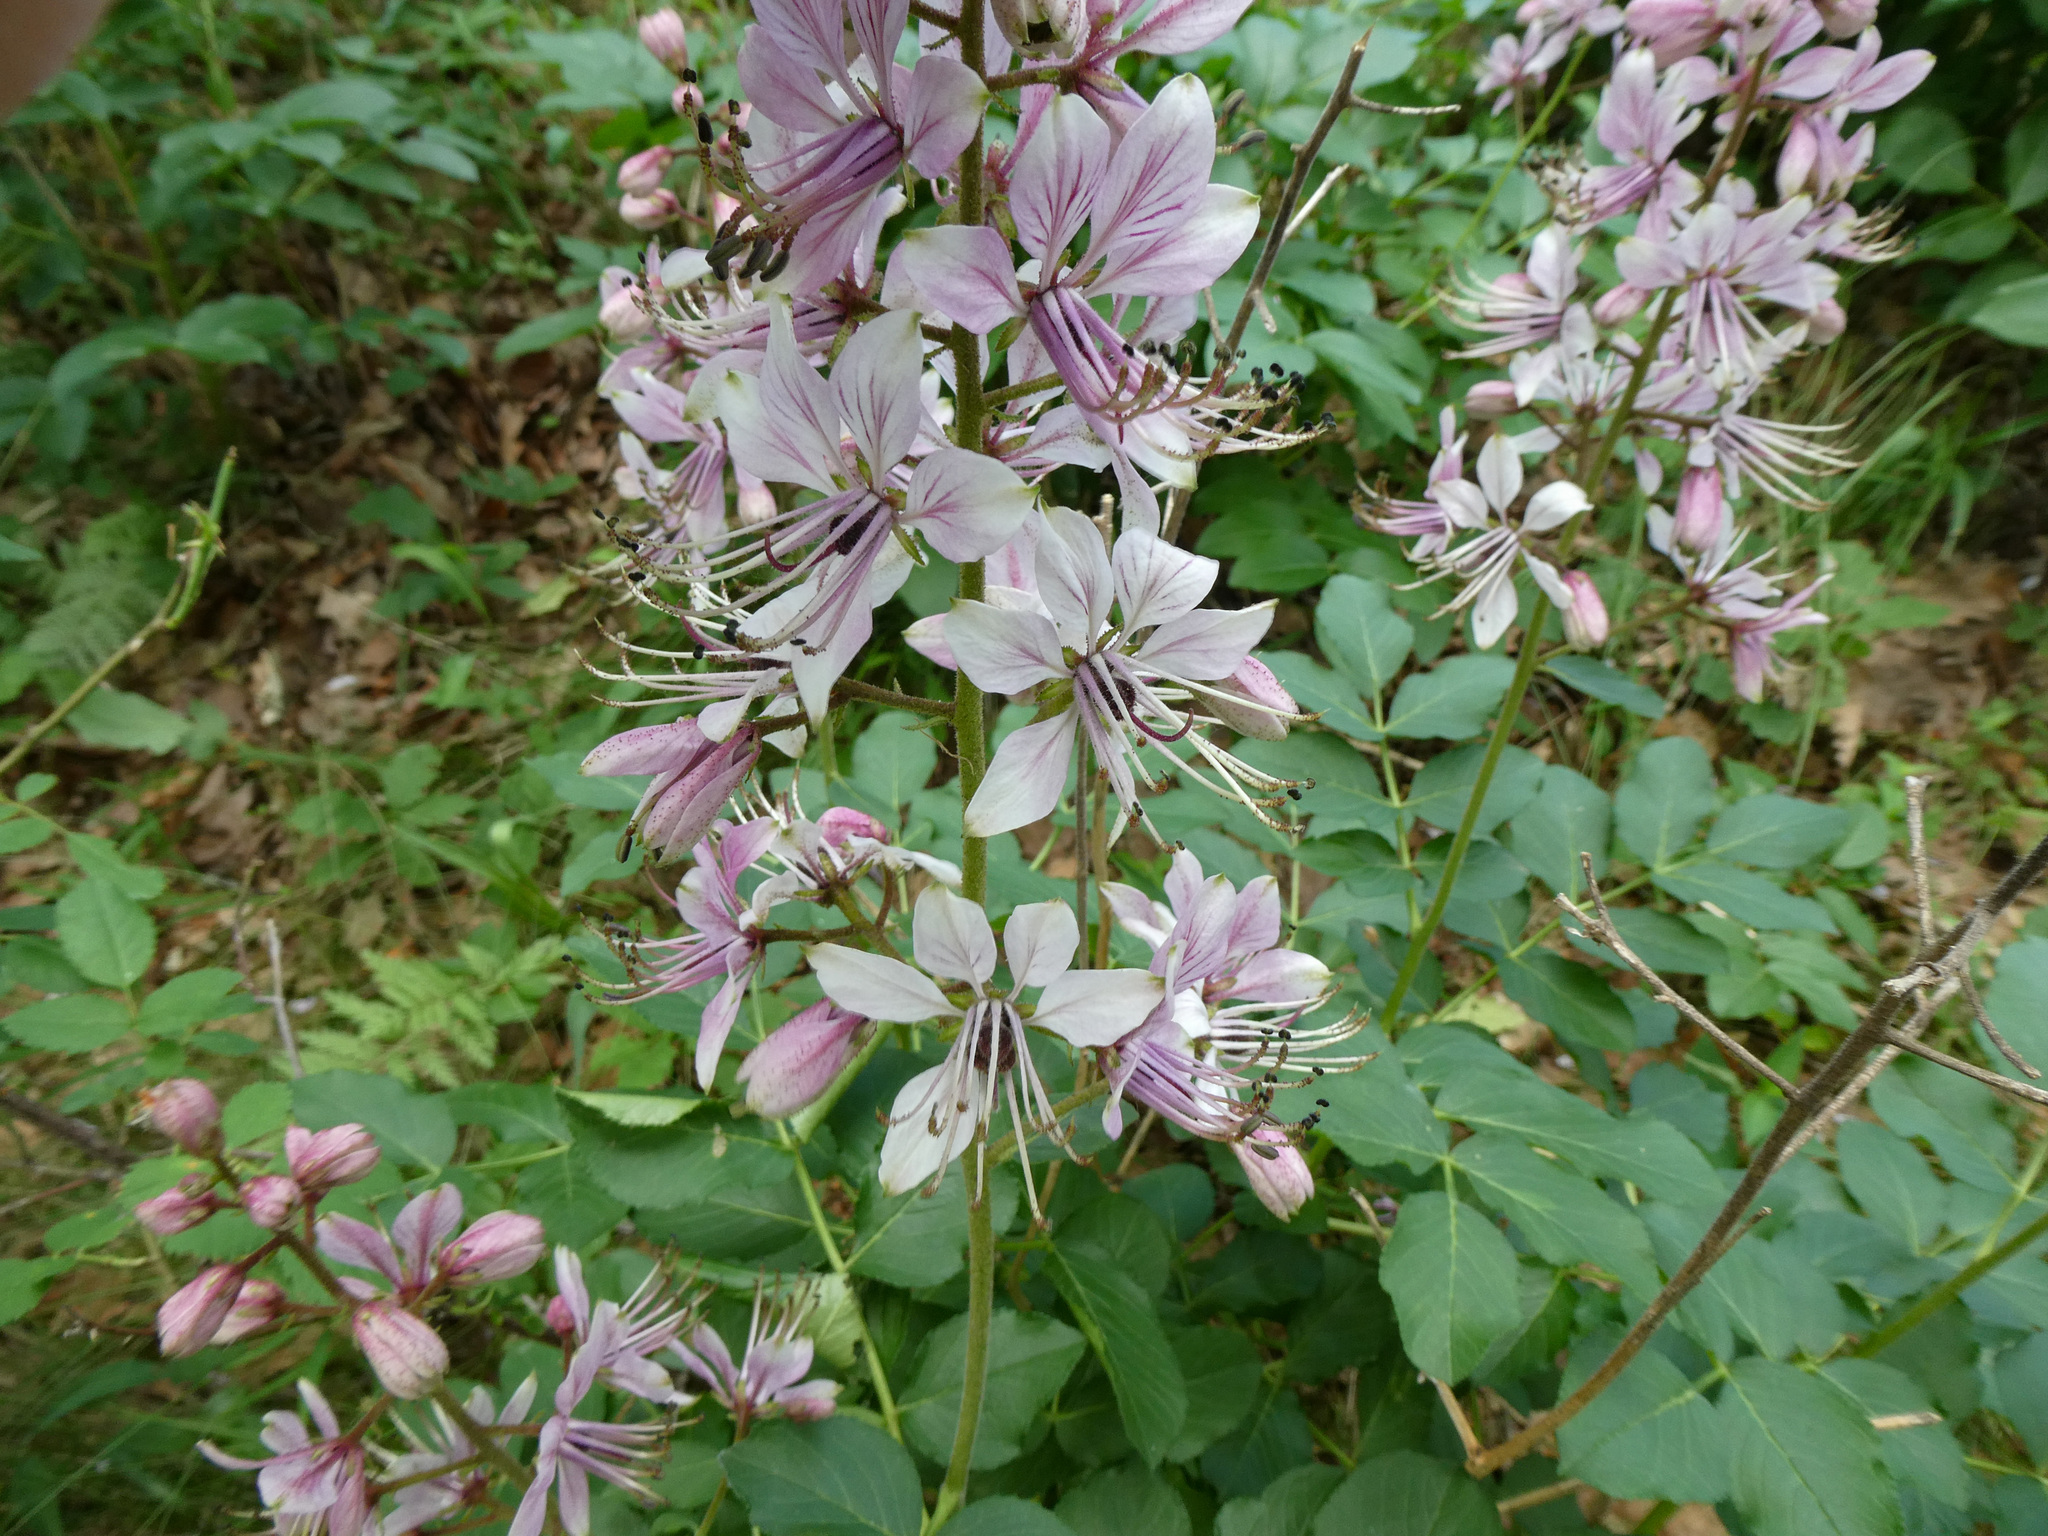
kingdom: Plantae
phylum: Tracheophyta
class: Magnoliopsida
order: Sapindales
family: Rutaceae
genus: Dictamnus
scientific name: Dictamnus albus
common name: Gasplant
